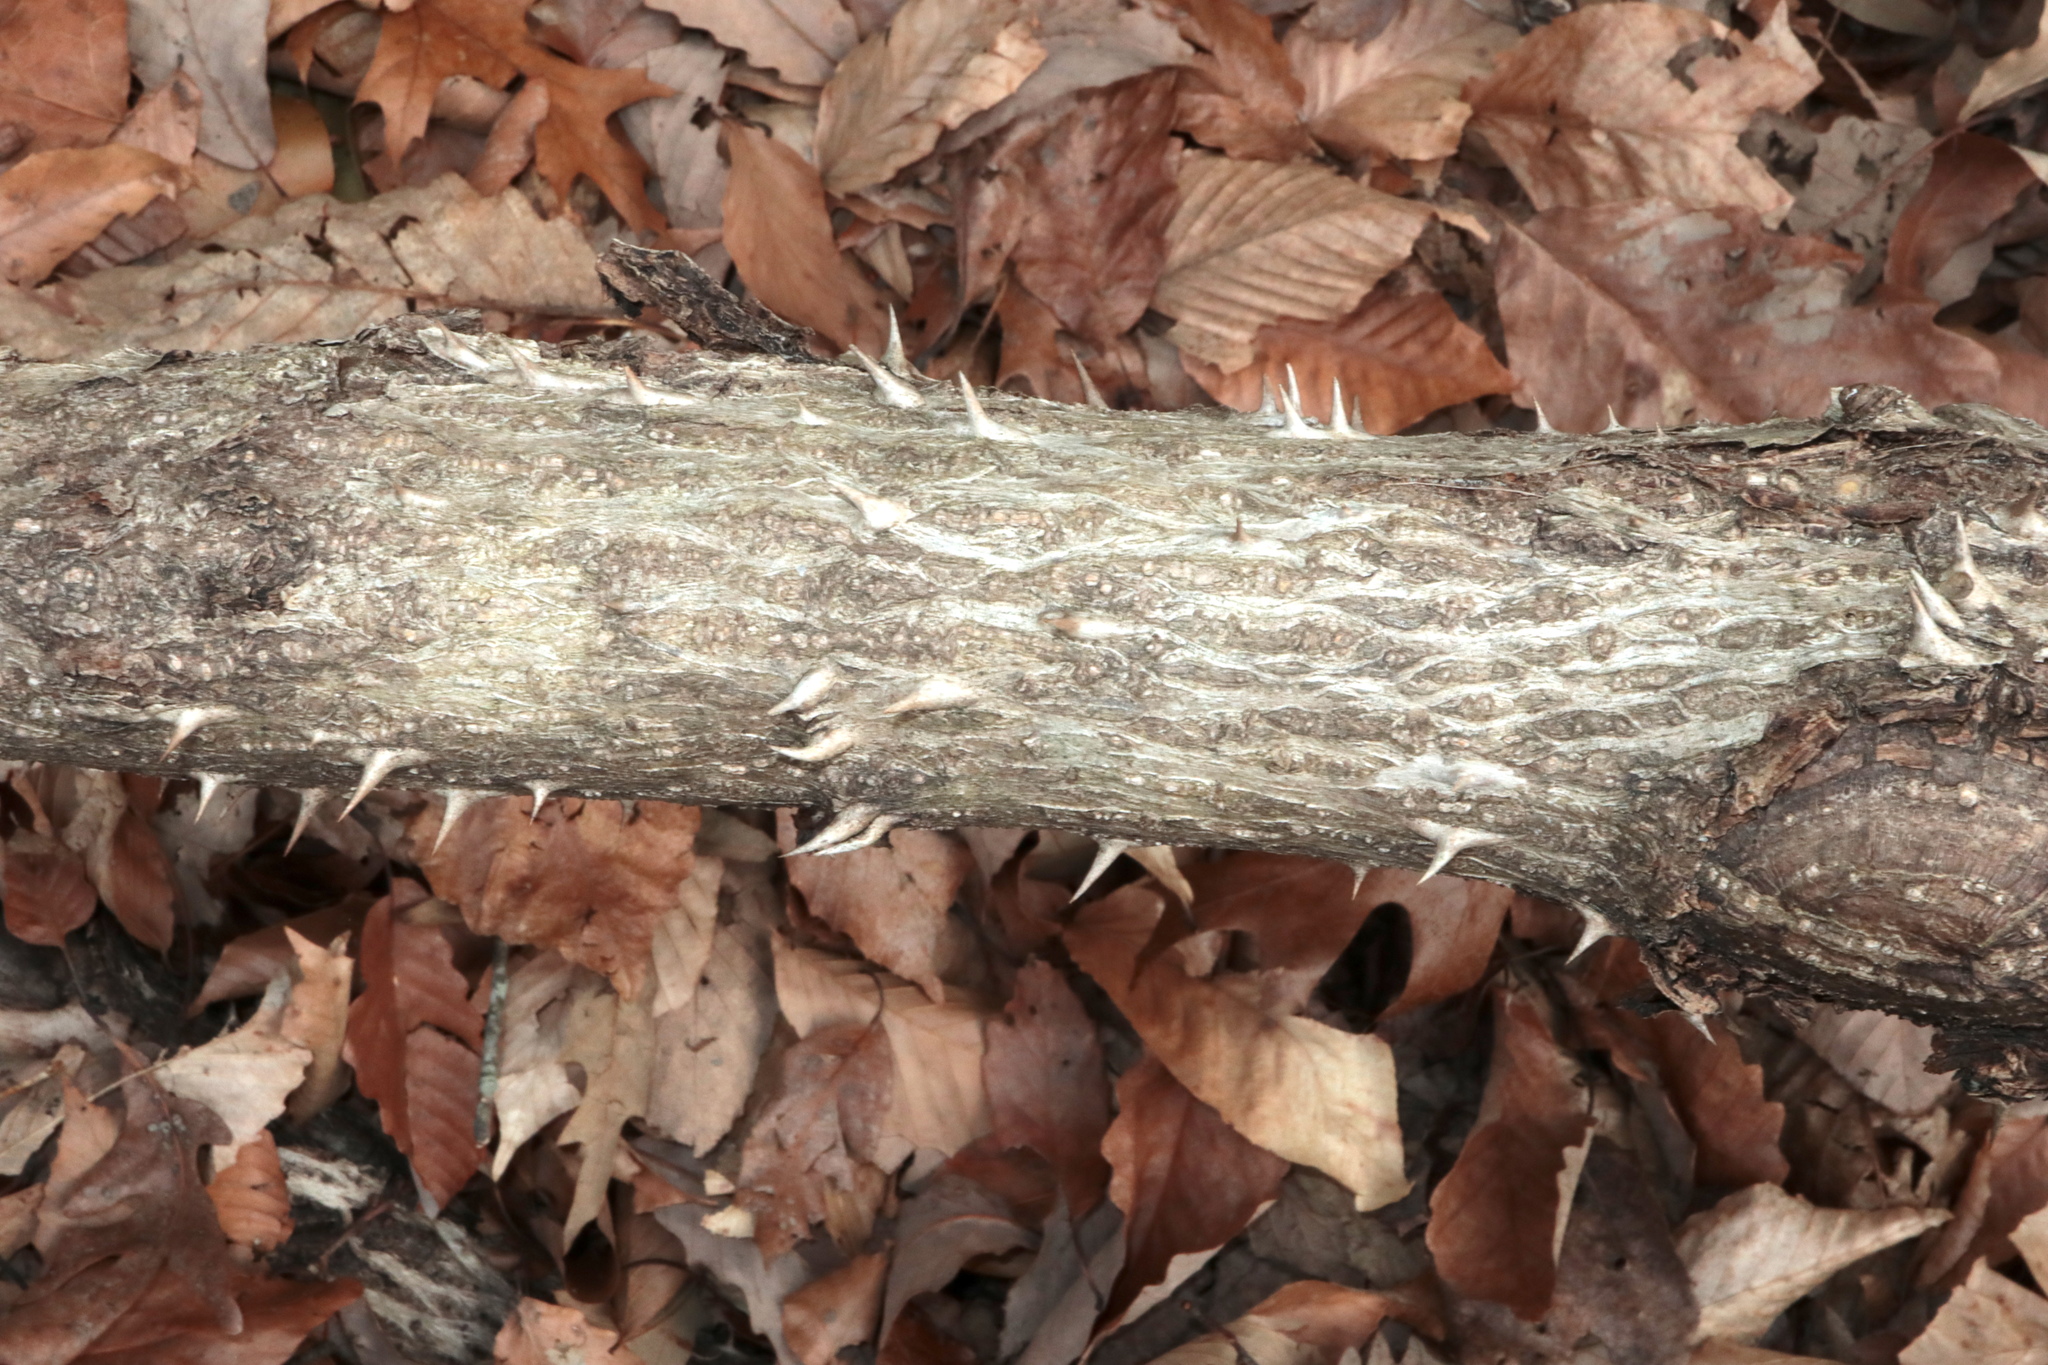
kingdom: Plantae
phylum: Tracheophyta
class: Magnoliopsida
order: Apiales
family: Araliaceae
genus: Aralia
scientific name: Aralia spinosa
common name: Hercules'-club
